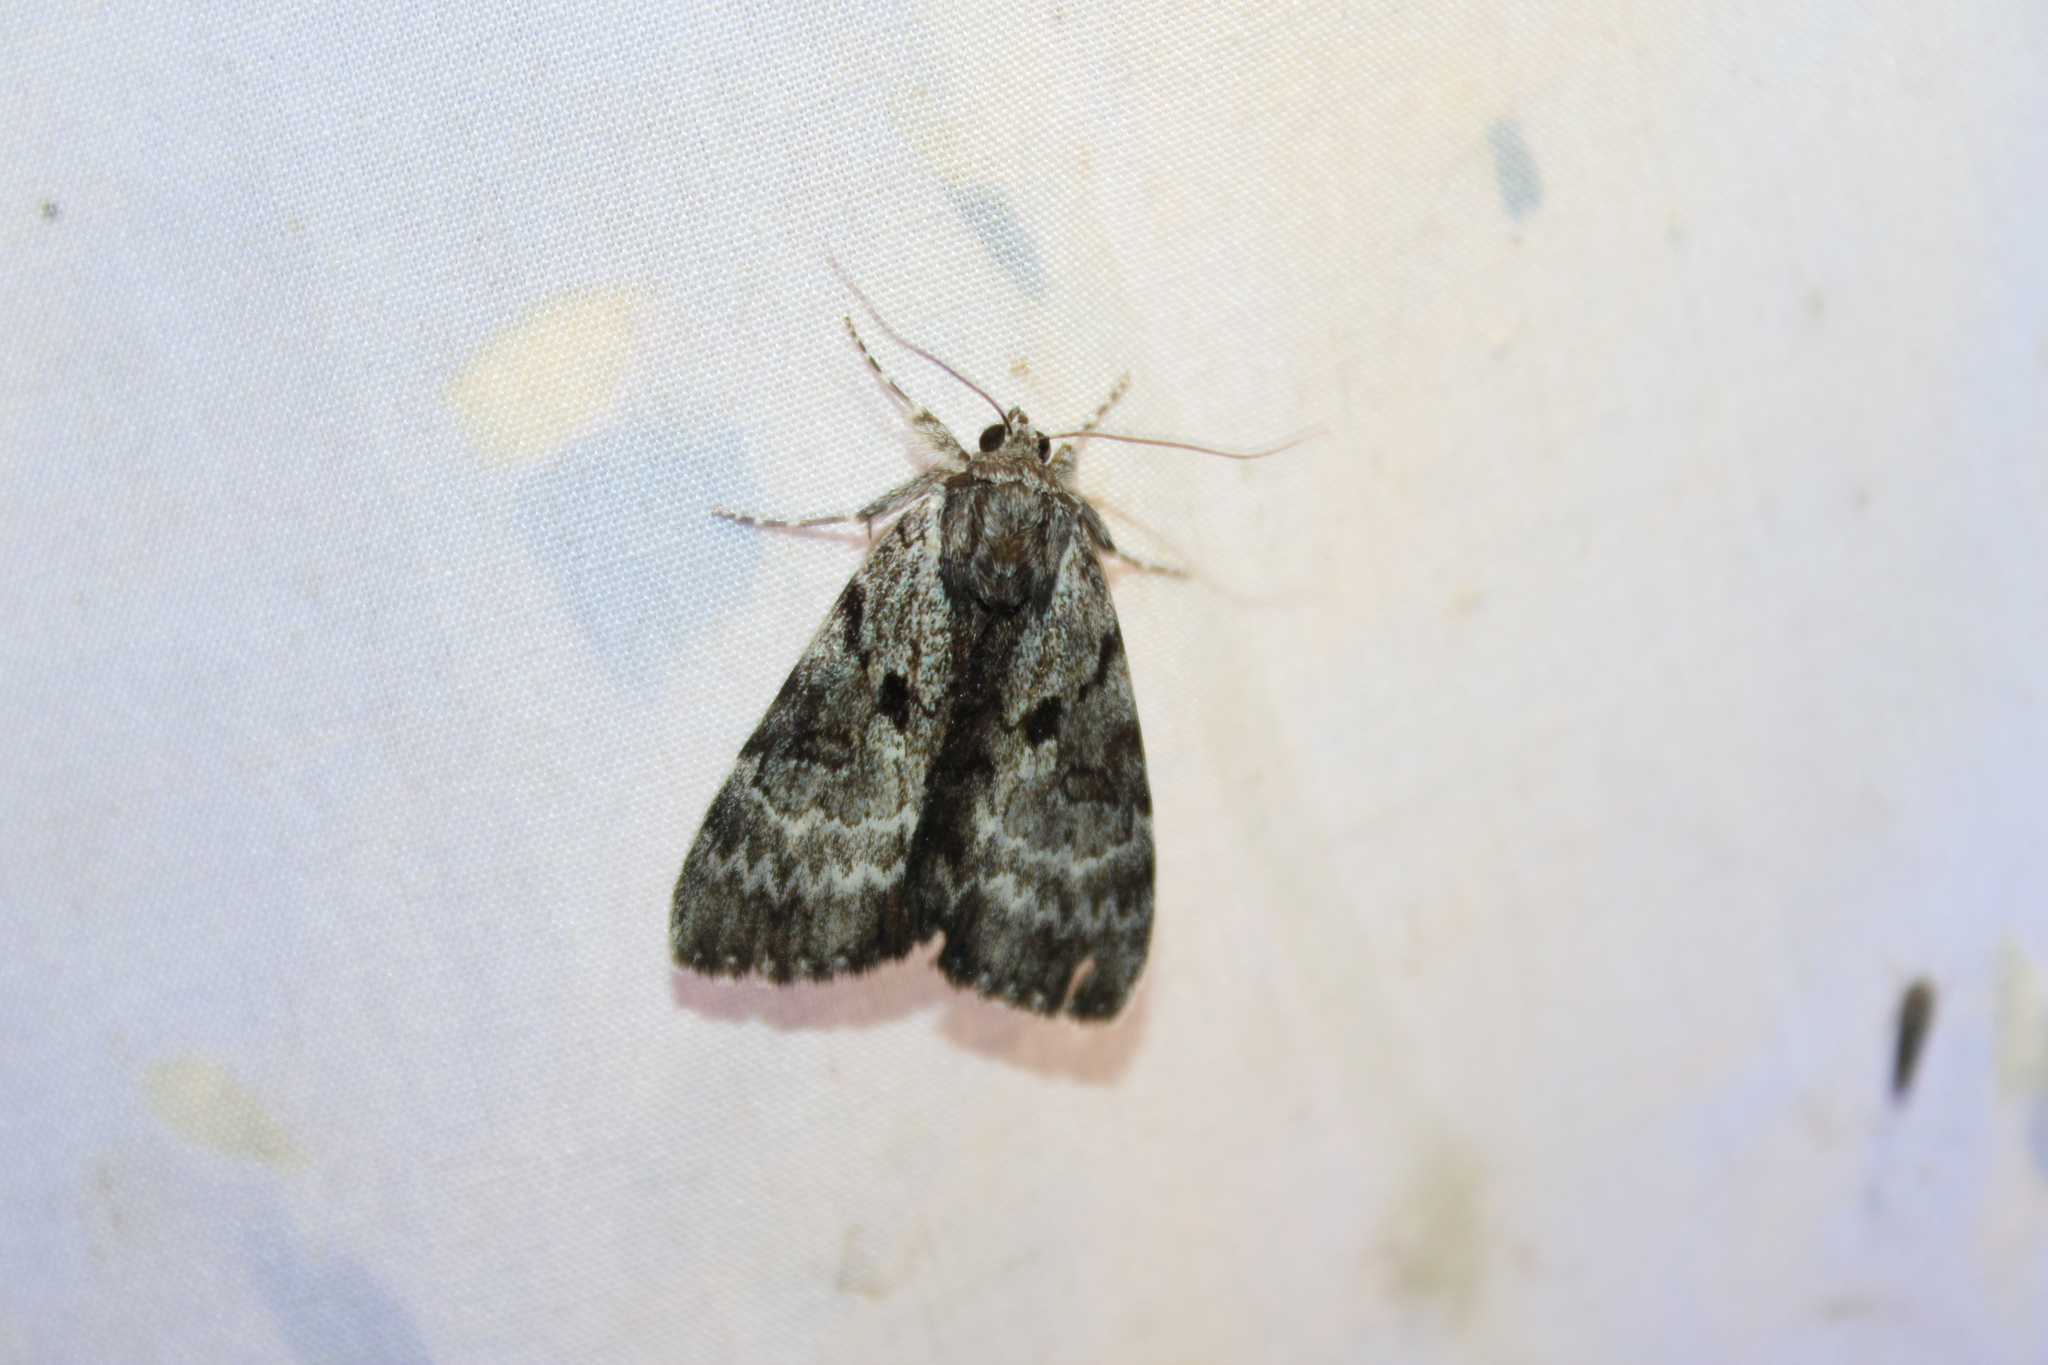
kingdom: Animalia
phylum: Arthropoda
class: Insecta
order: Lepidoptera
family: Erebidae
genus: Catocala
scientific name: Catocala andromedae
